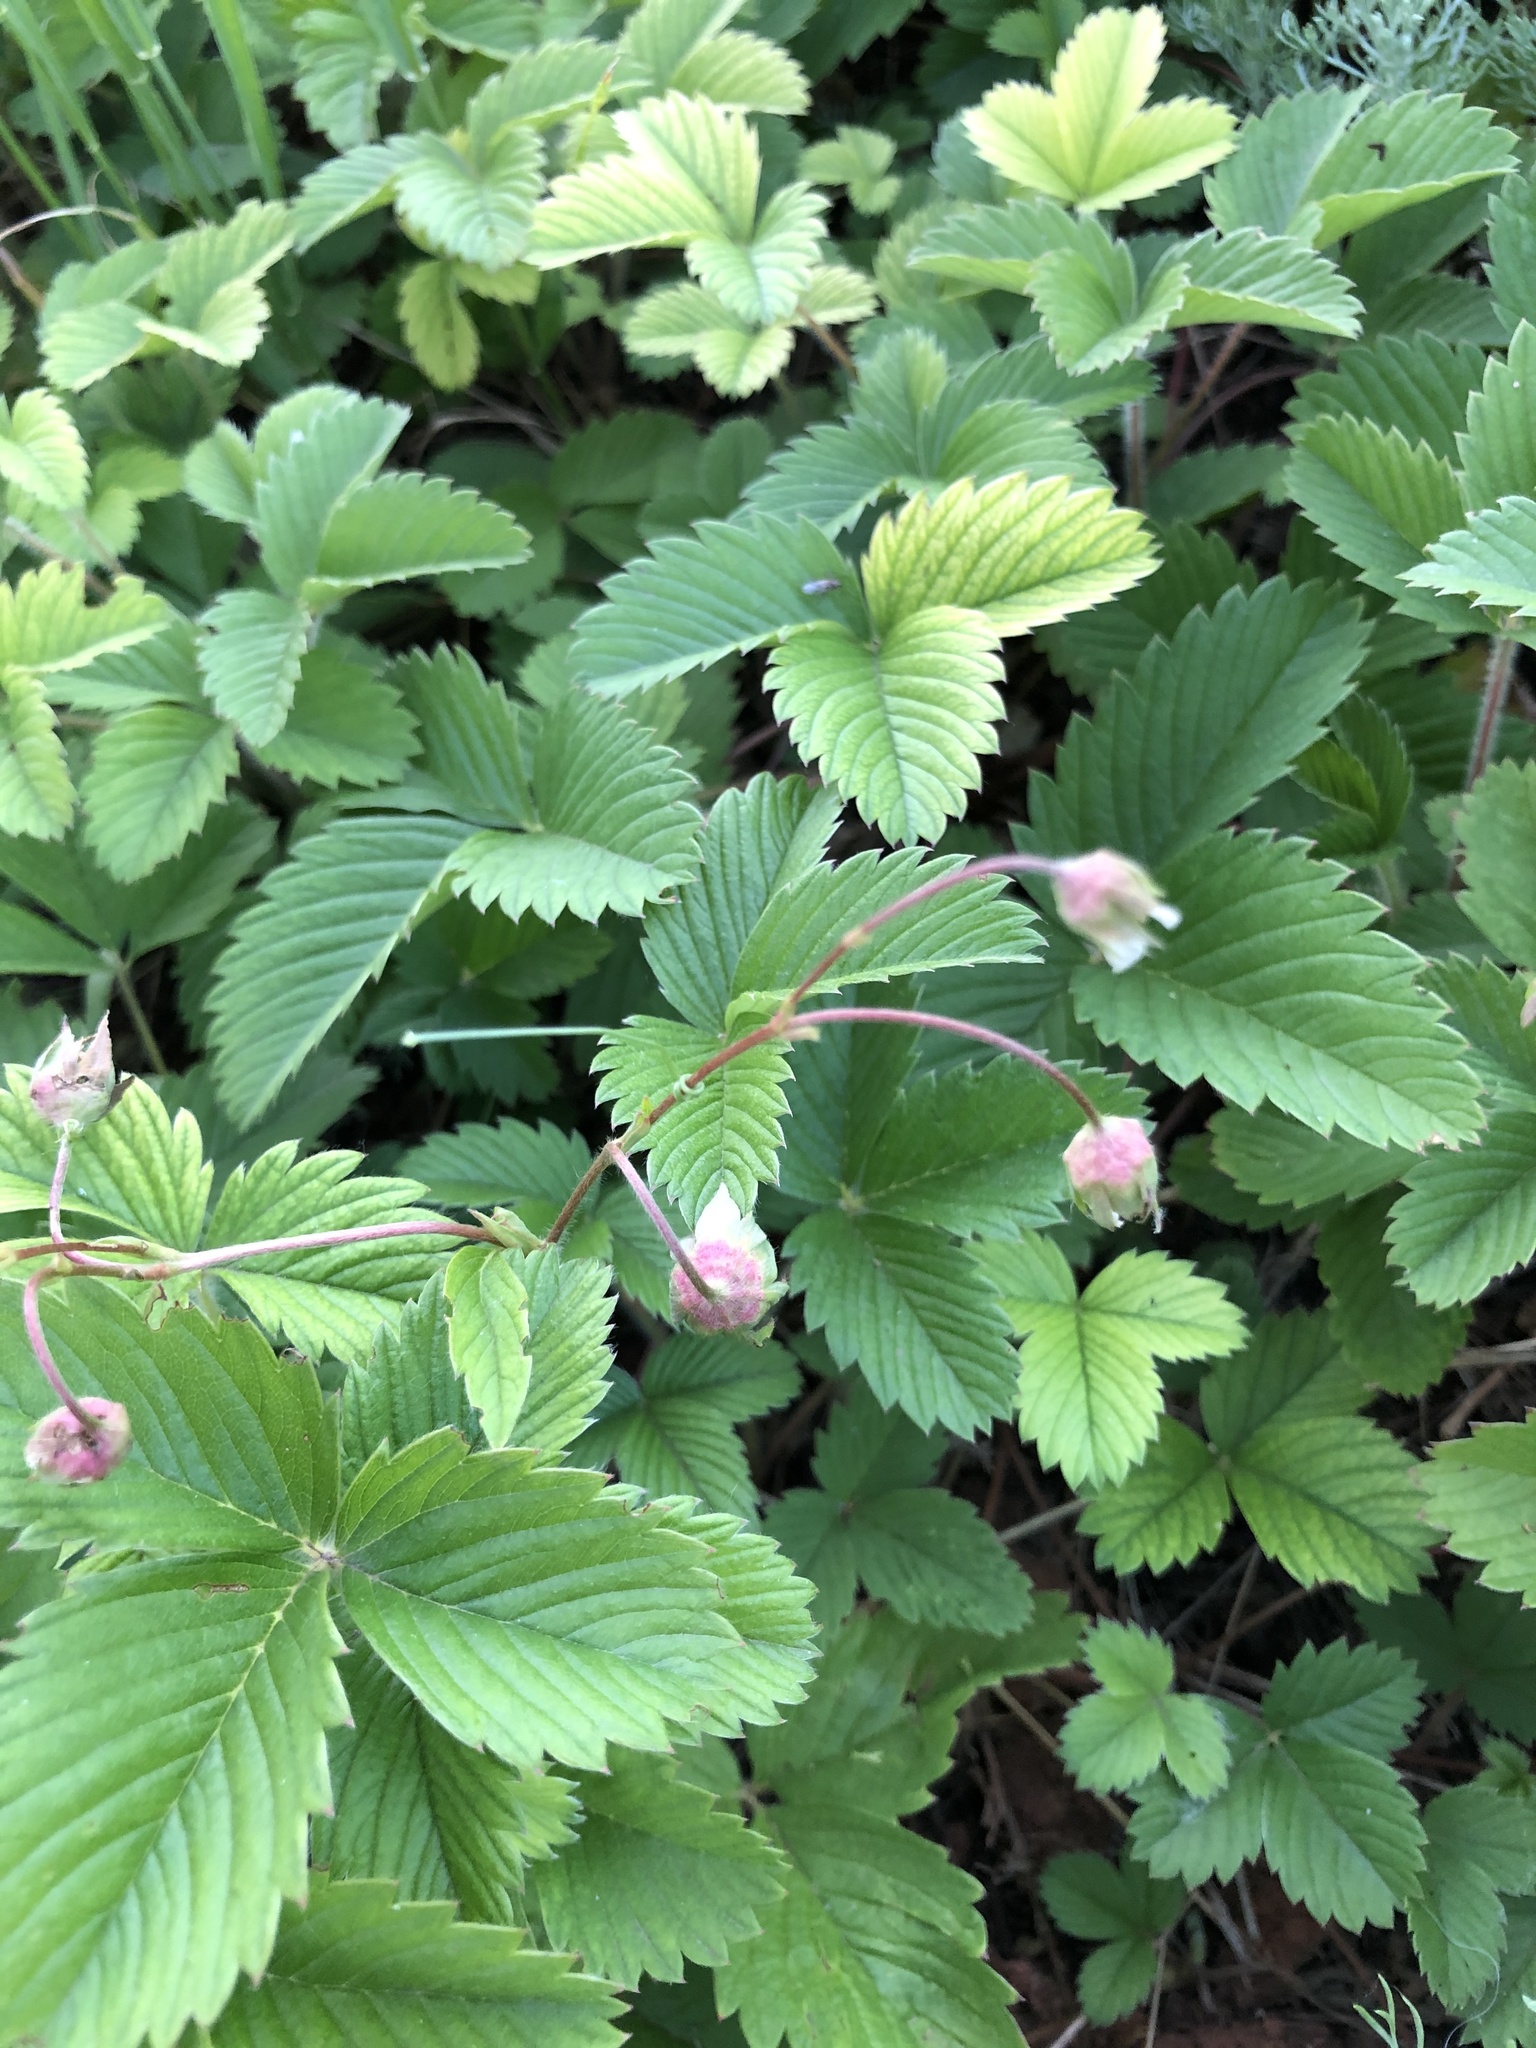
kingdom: Plantae
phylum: Tracheophyta
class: Magnoliopsida
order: Rosales
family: Rosaceae
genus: Fragaria
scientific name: Fragaria viridis
